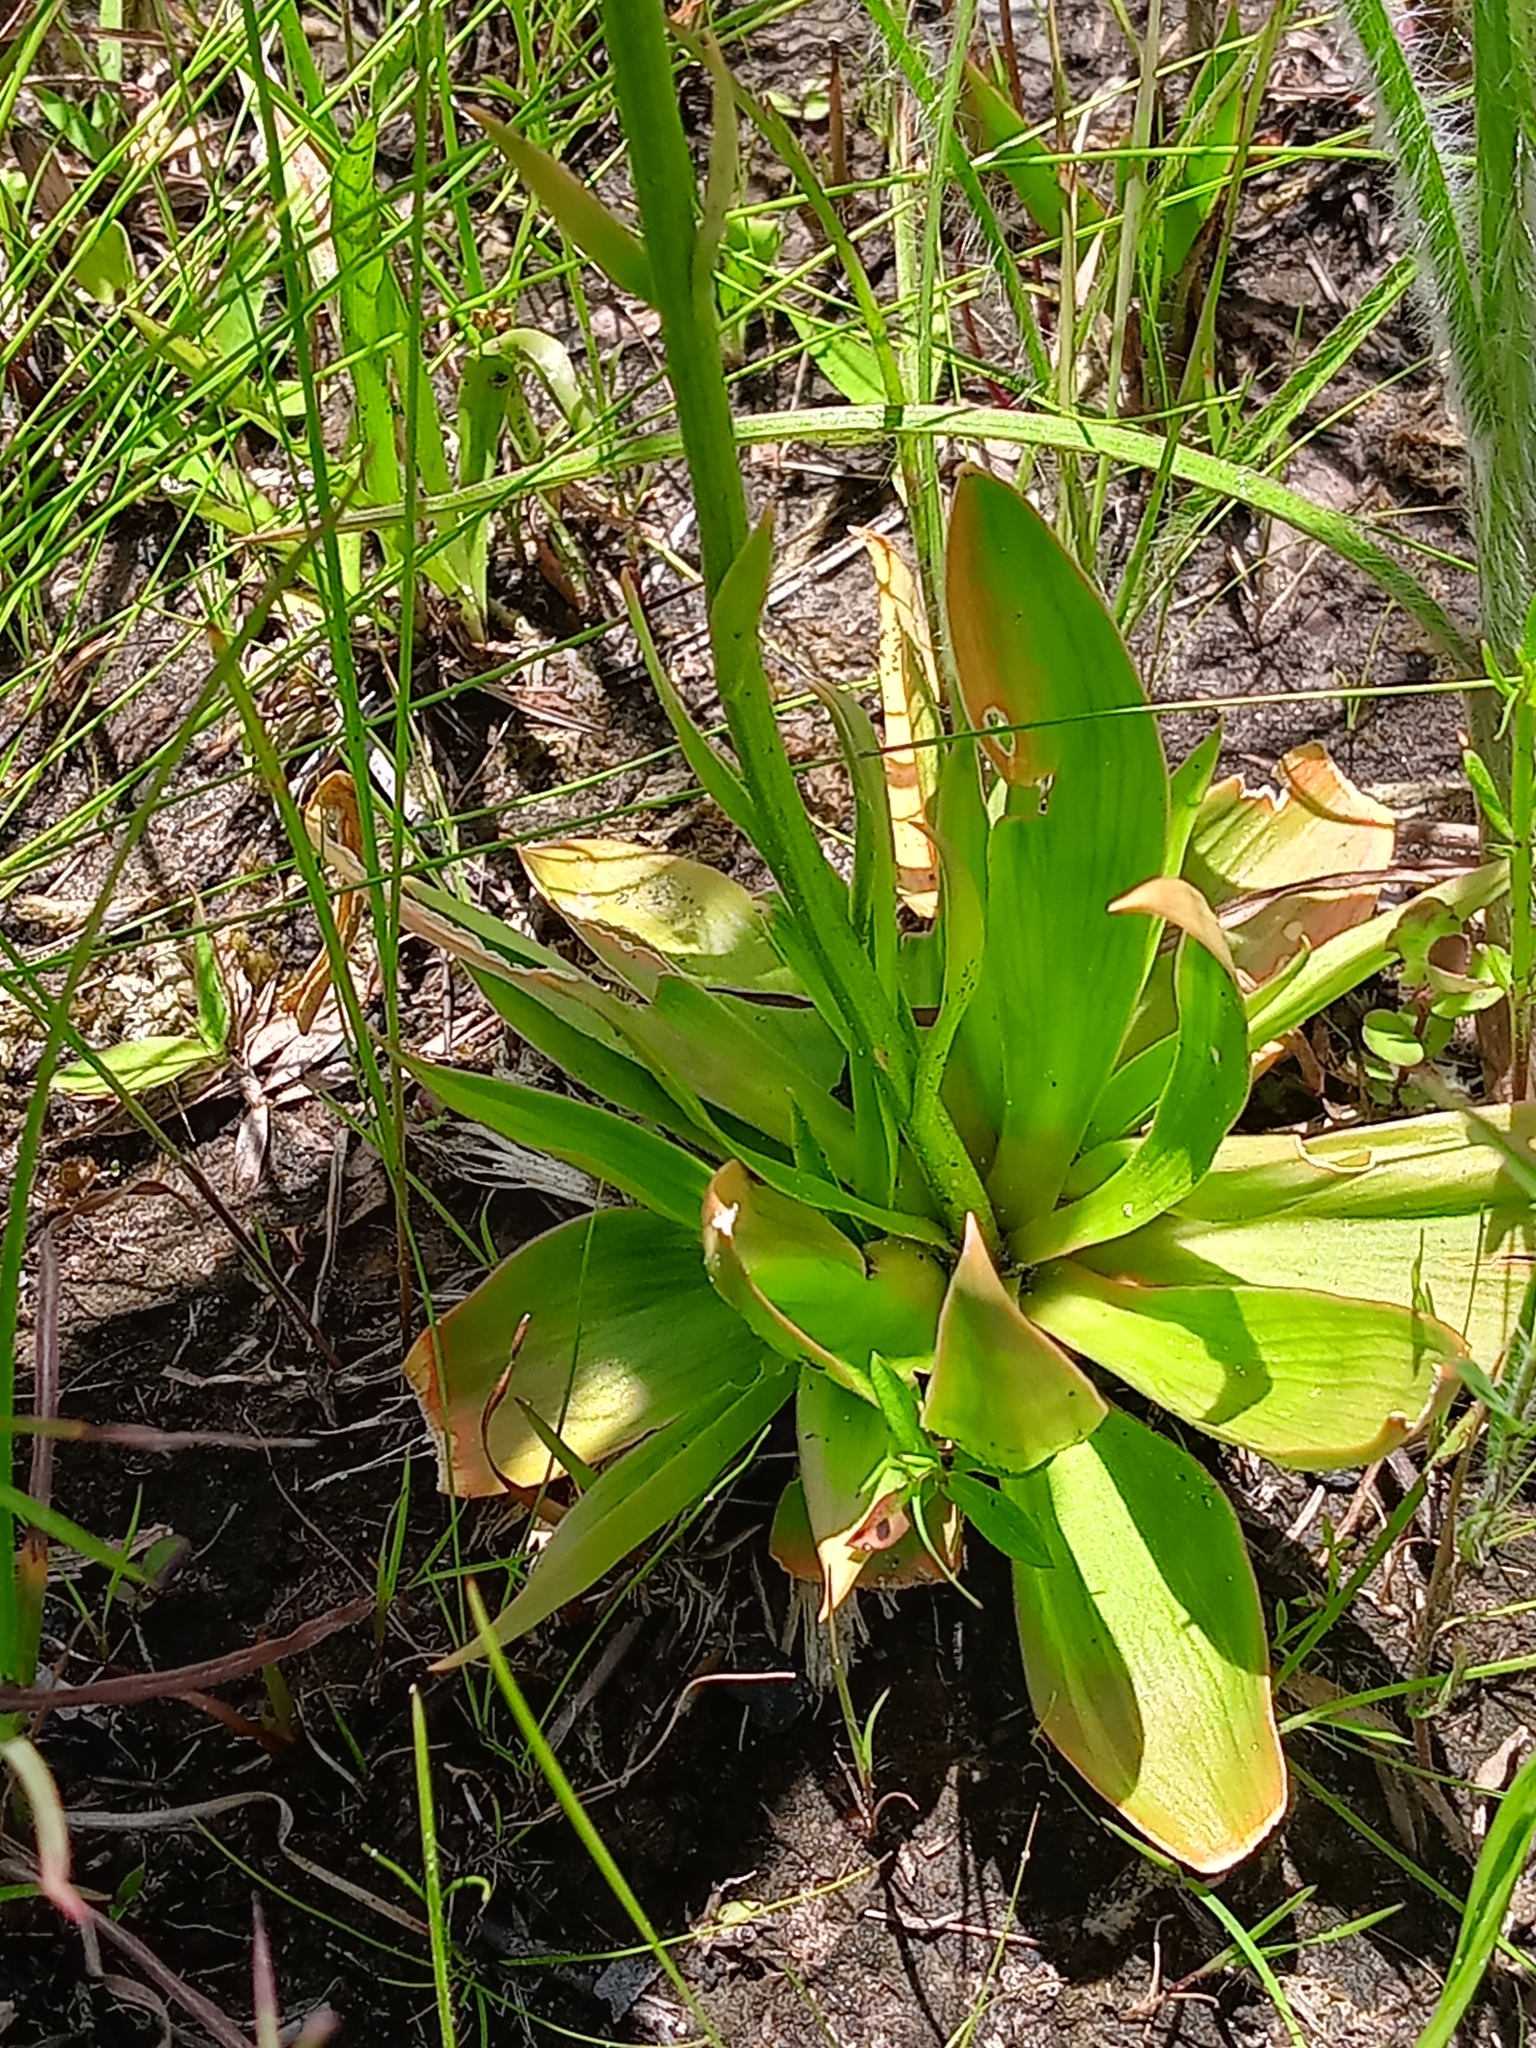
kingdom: Plantae
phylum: Tracheophyta
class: Liliopsida
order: Dioscoreales
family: Nartheciaceae
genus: Aletris
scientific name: Aletris aurea
